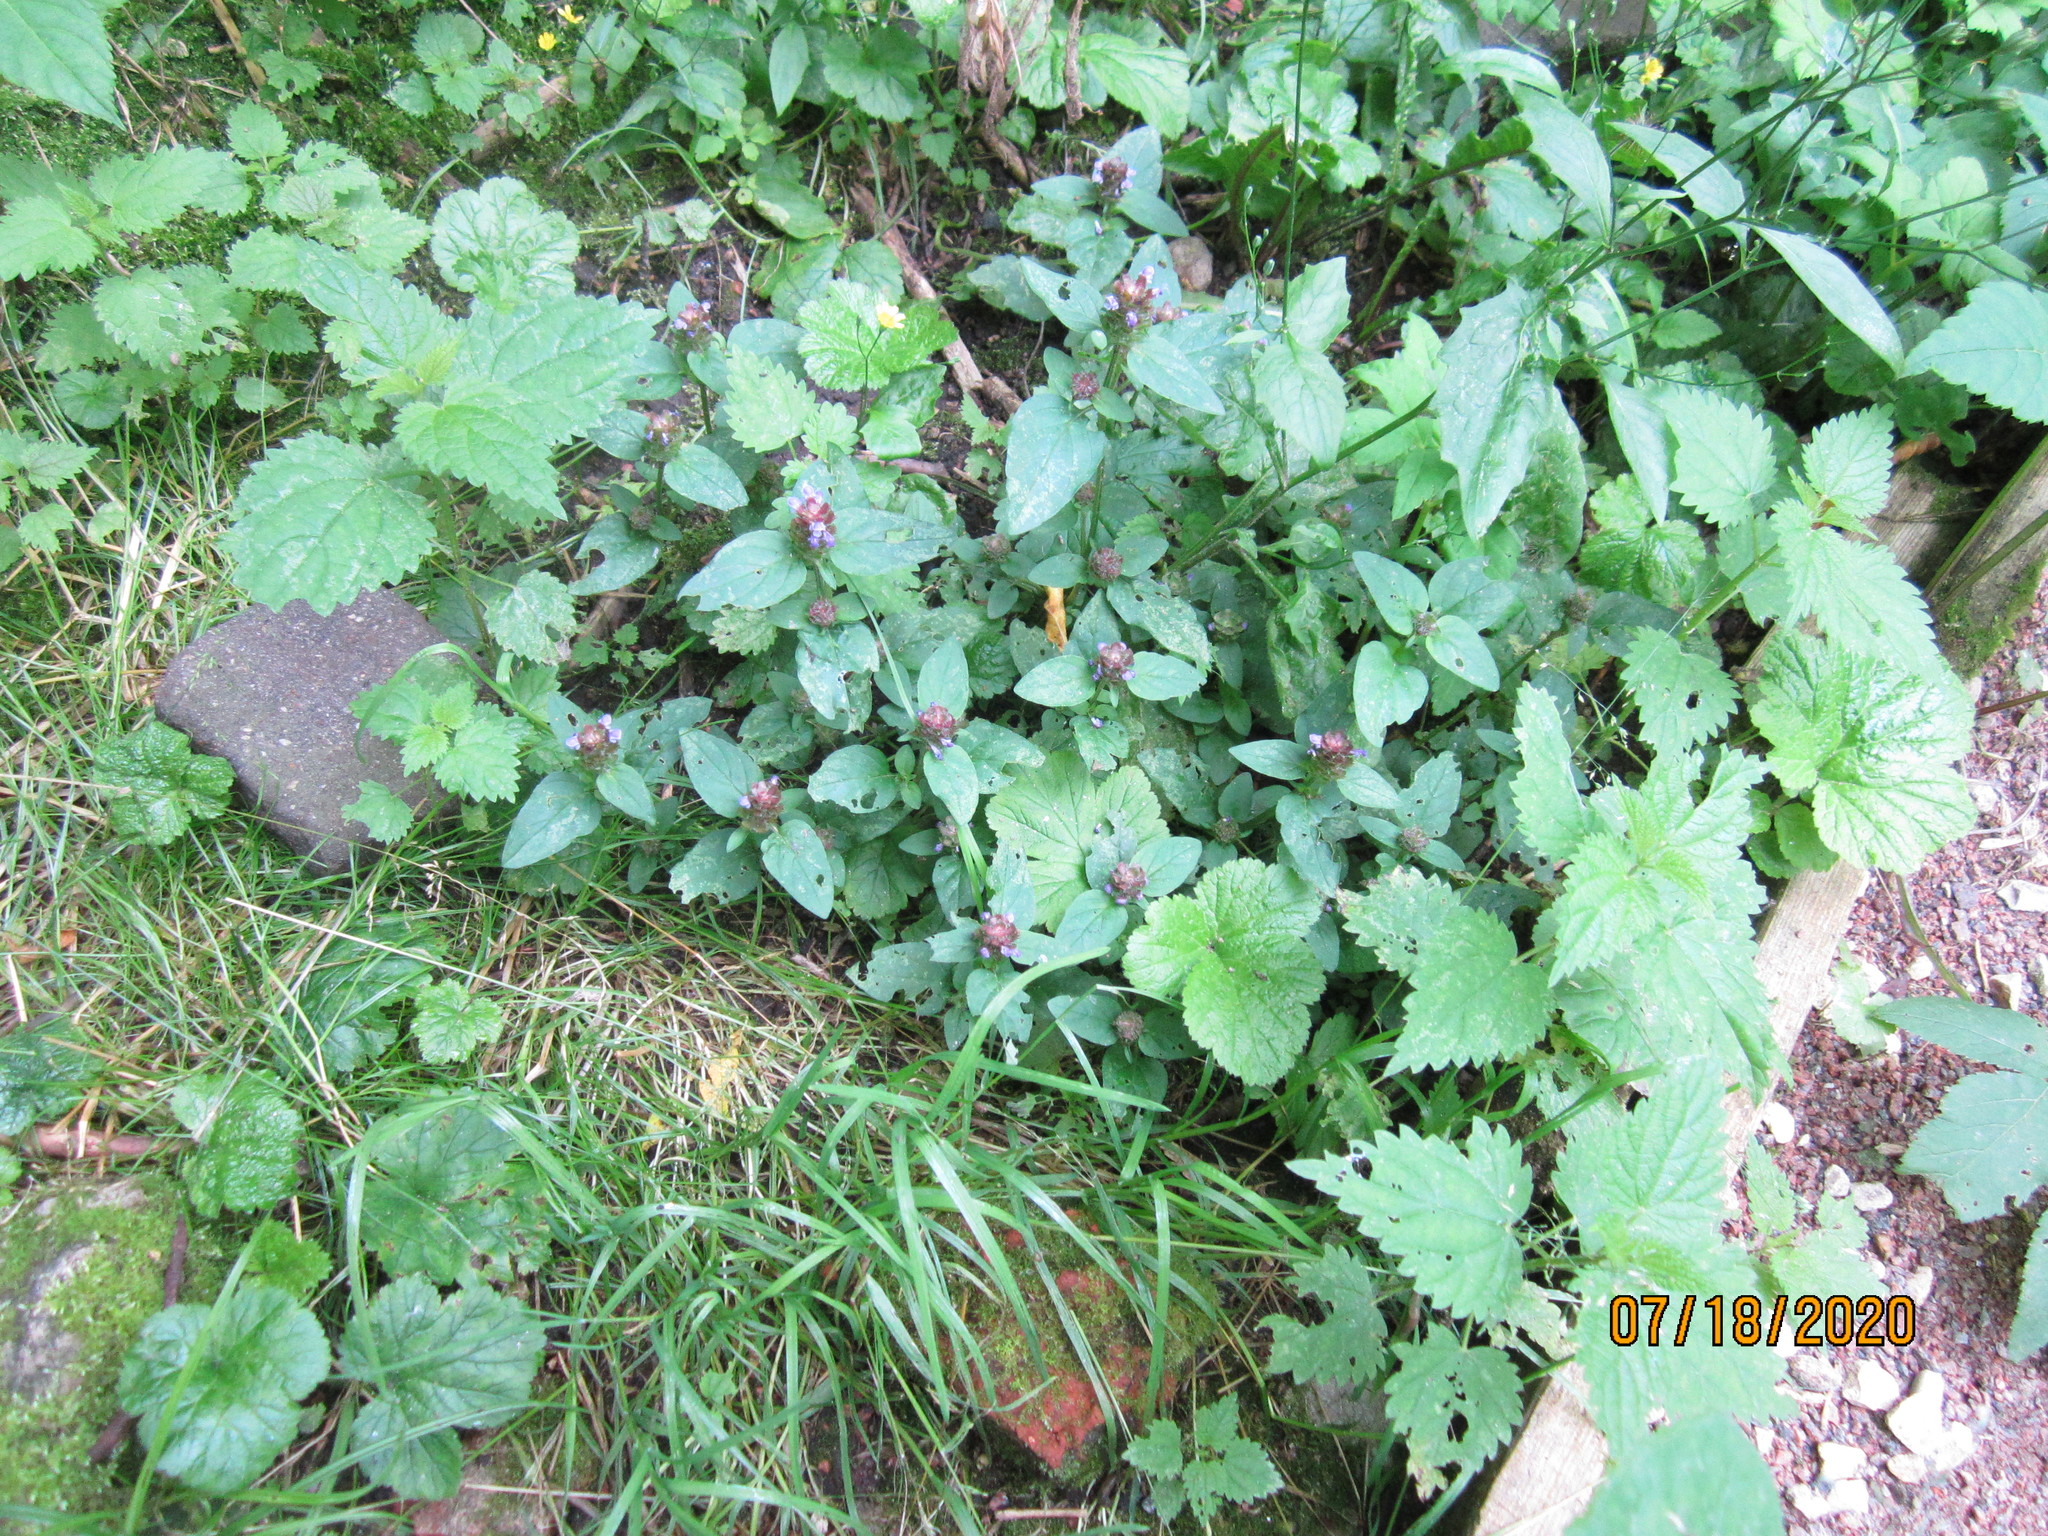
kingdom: Plantae
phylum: Tracheophyta
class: Magnoliopsida
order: Lamiales
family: Lamiaceae
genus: Prunella
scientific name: Prunella vulgaris
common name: Heal-all
